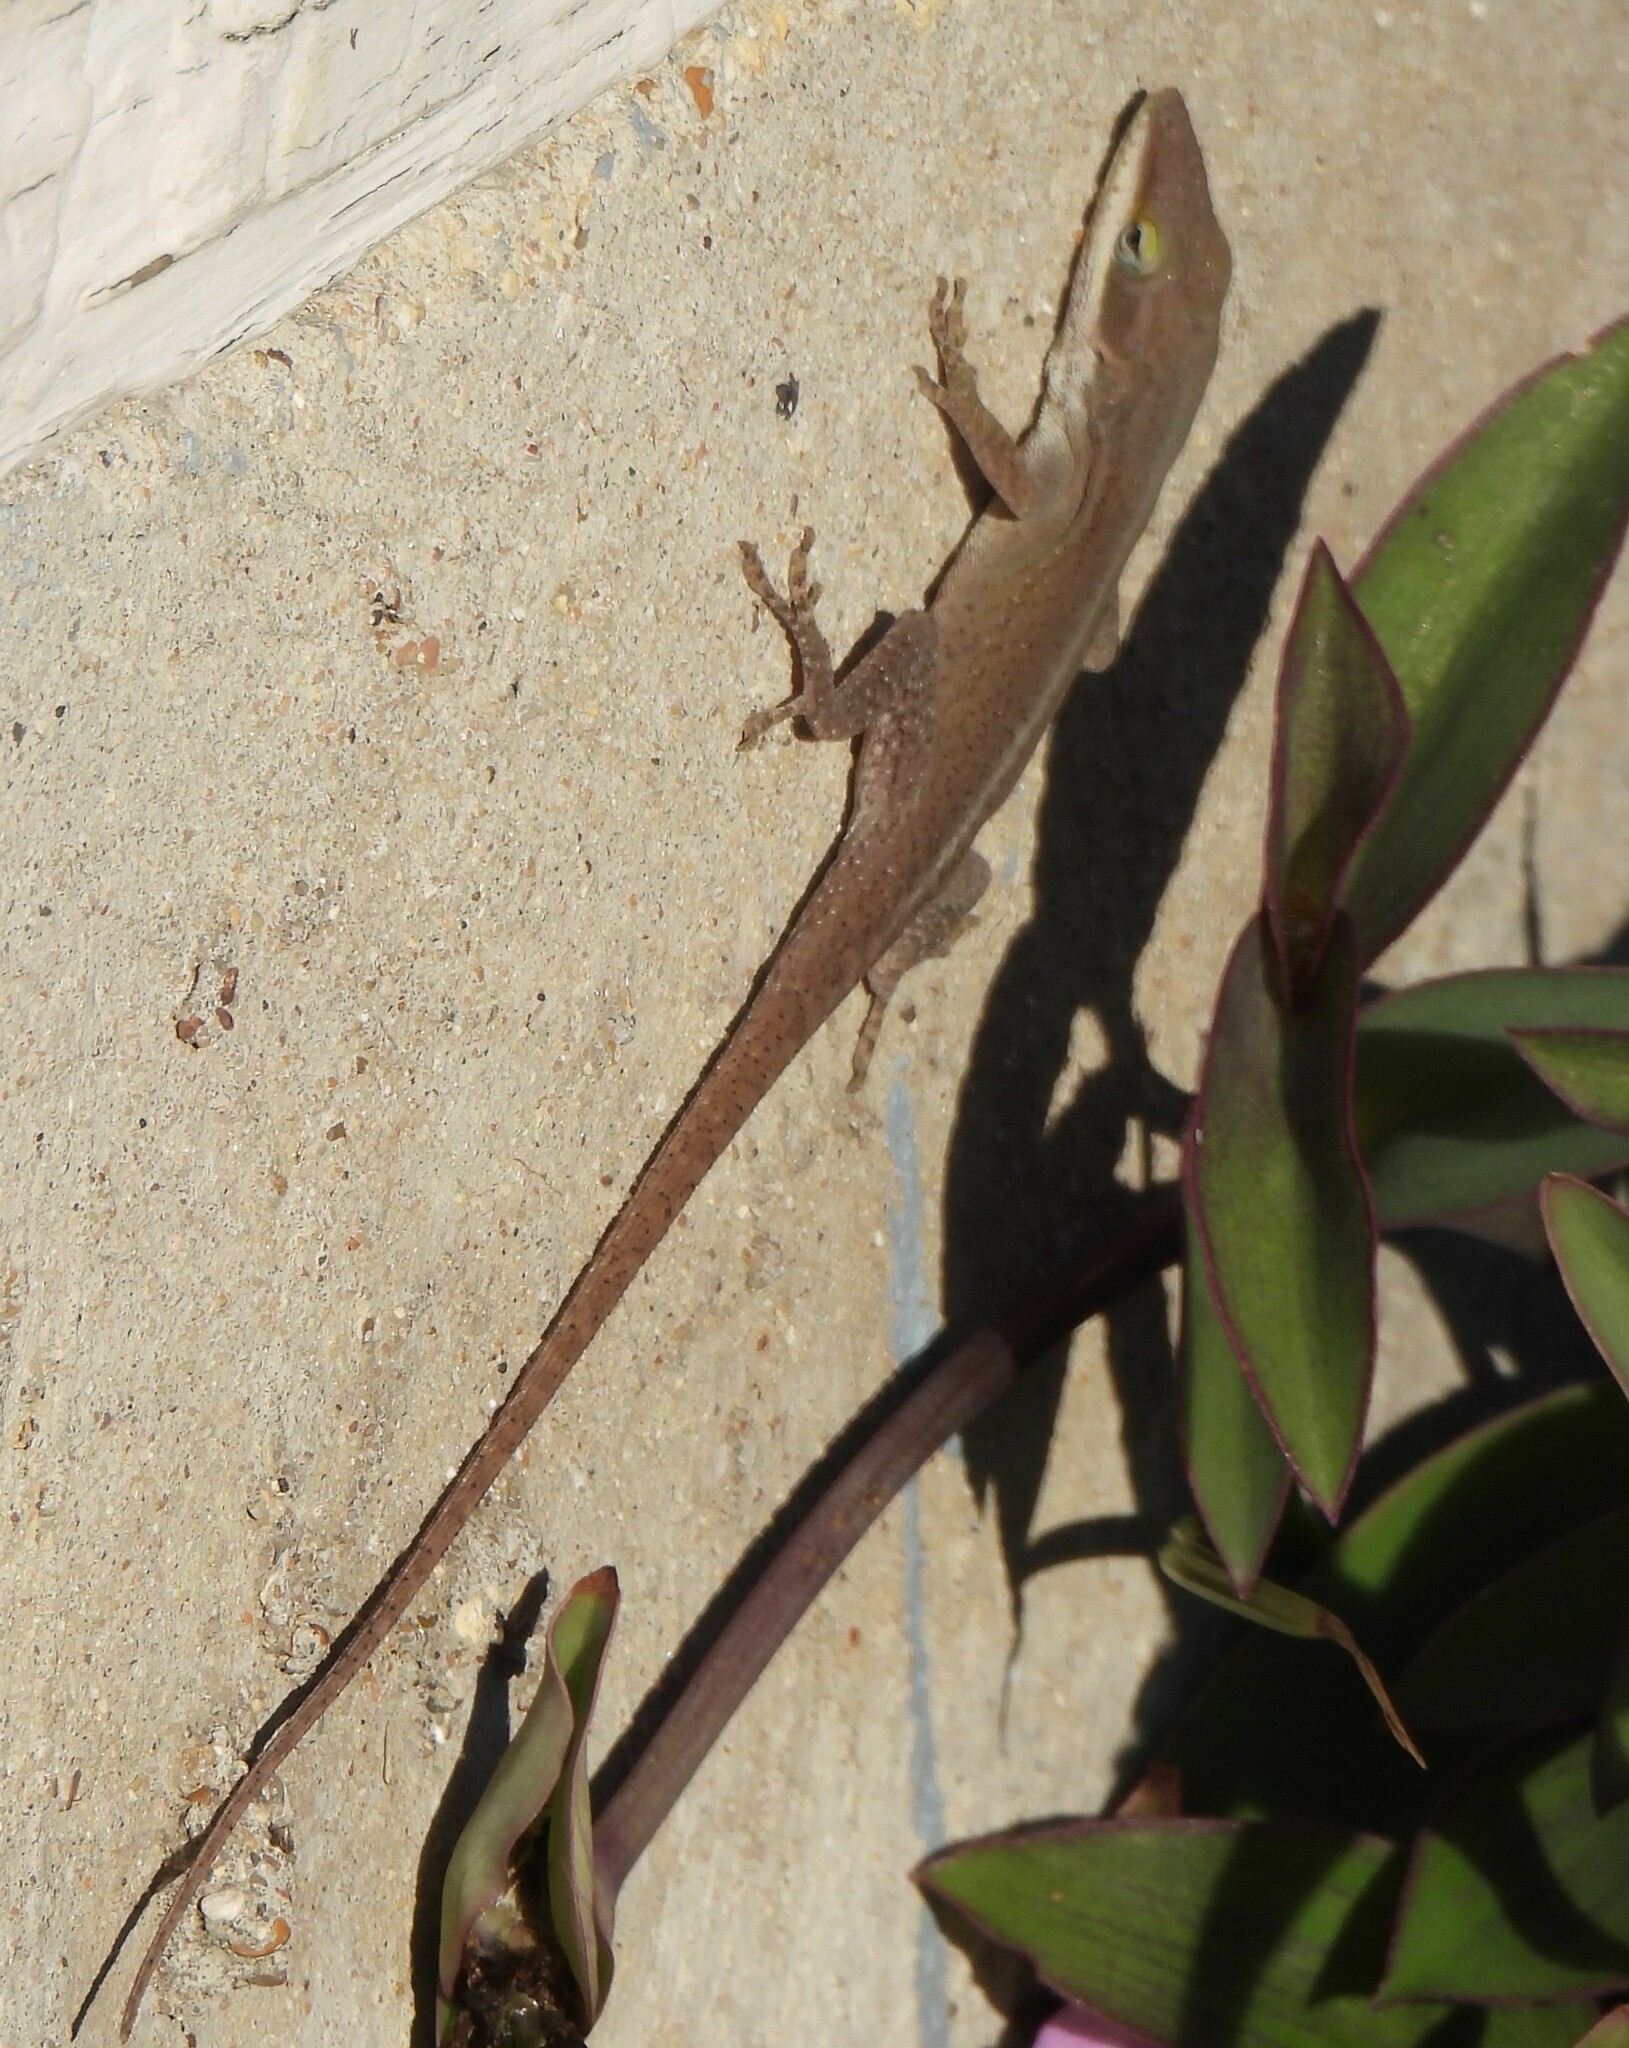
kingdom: Animalia
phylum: Chordata
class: Squamata
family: Dactyloidae
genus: Anolis
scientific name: Anolis carolinensis
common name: Green anole
